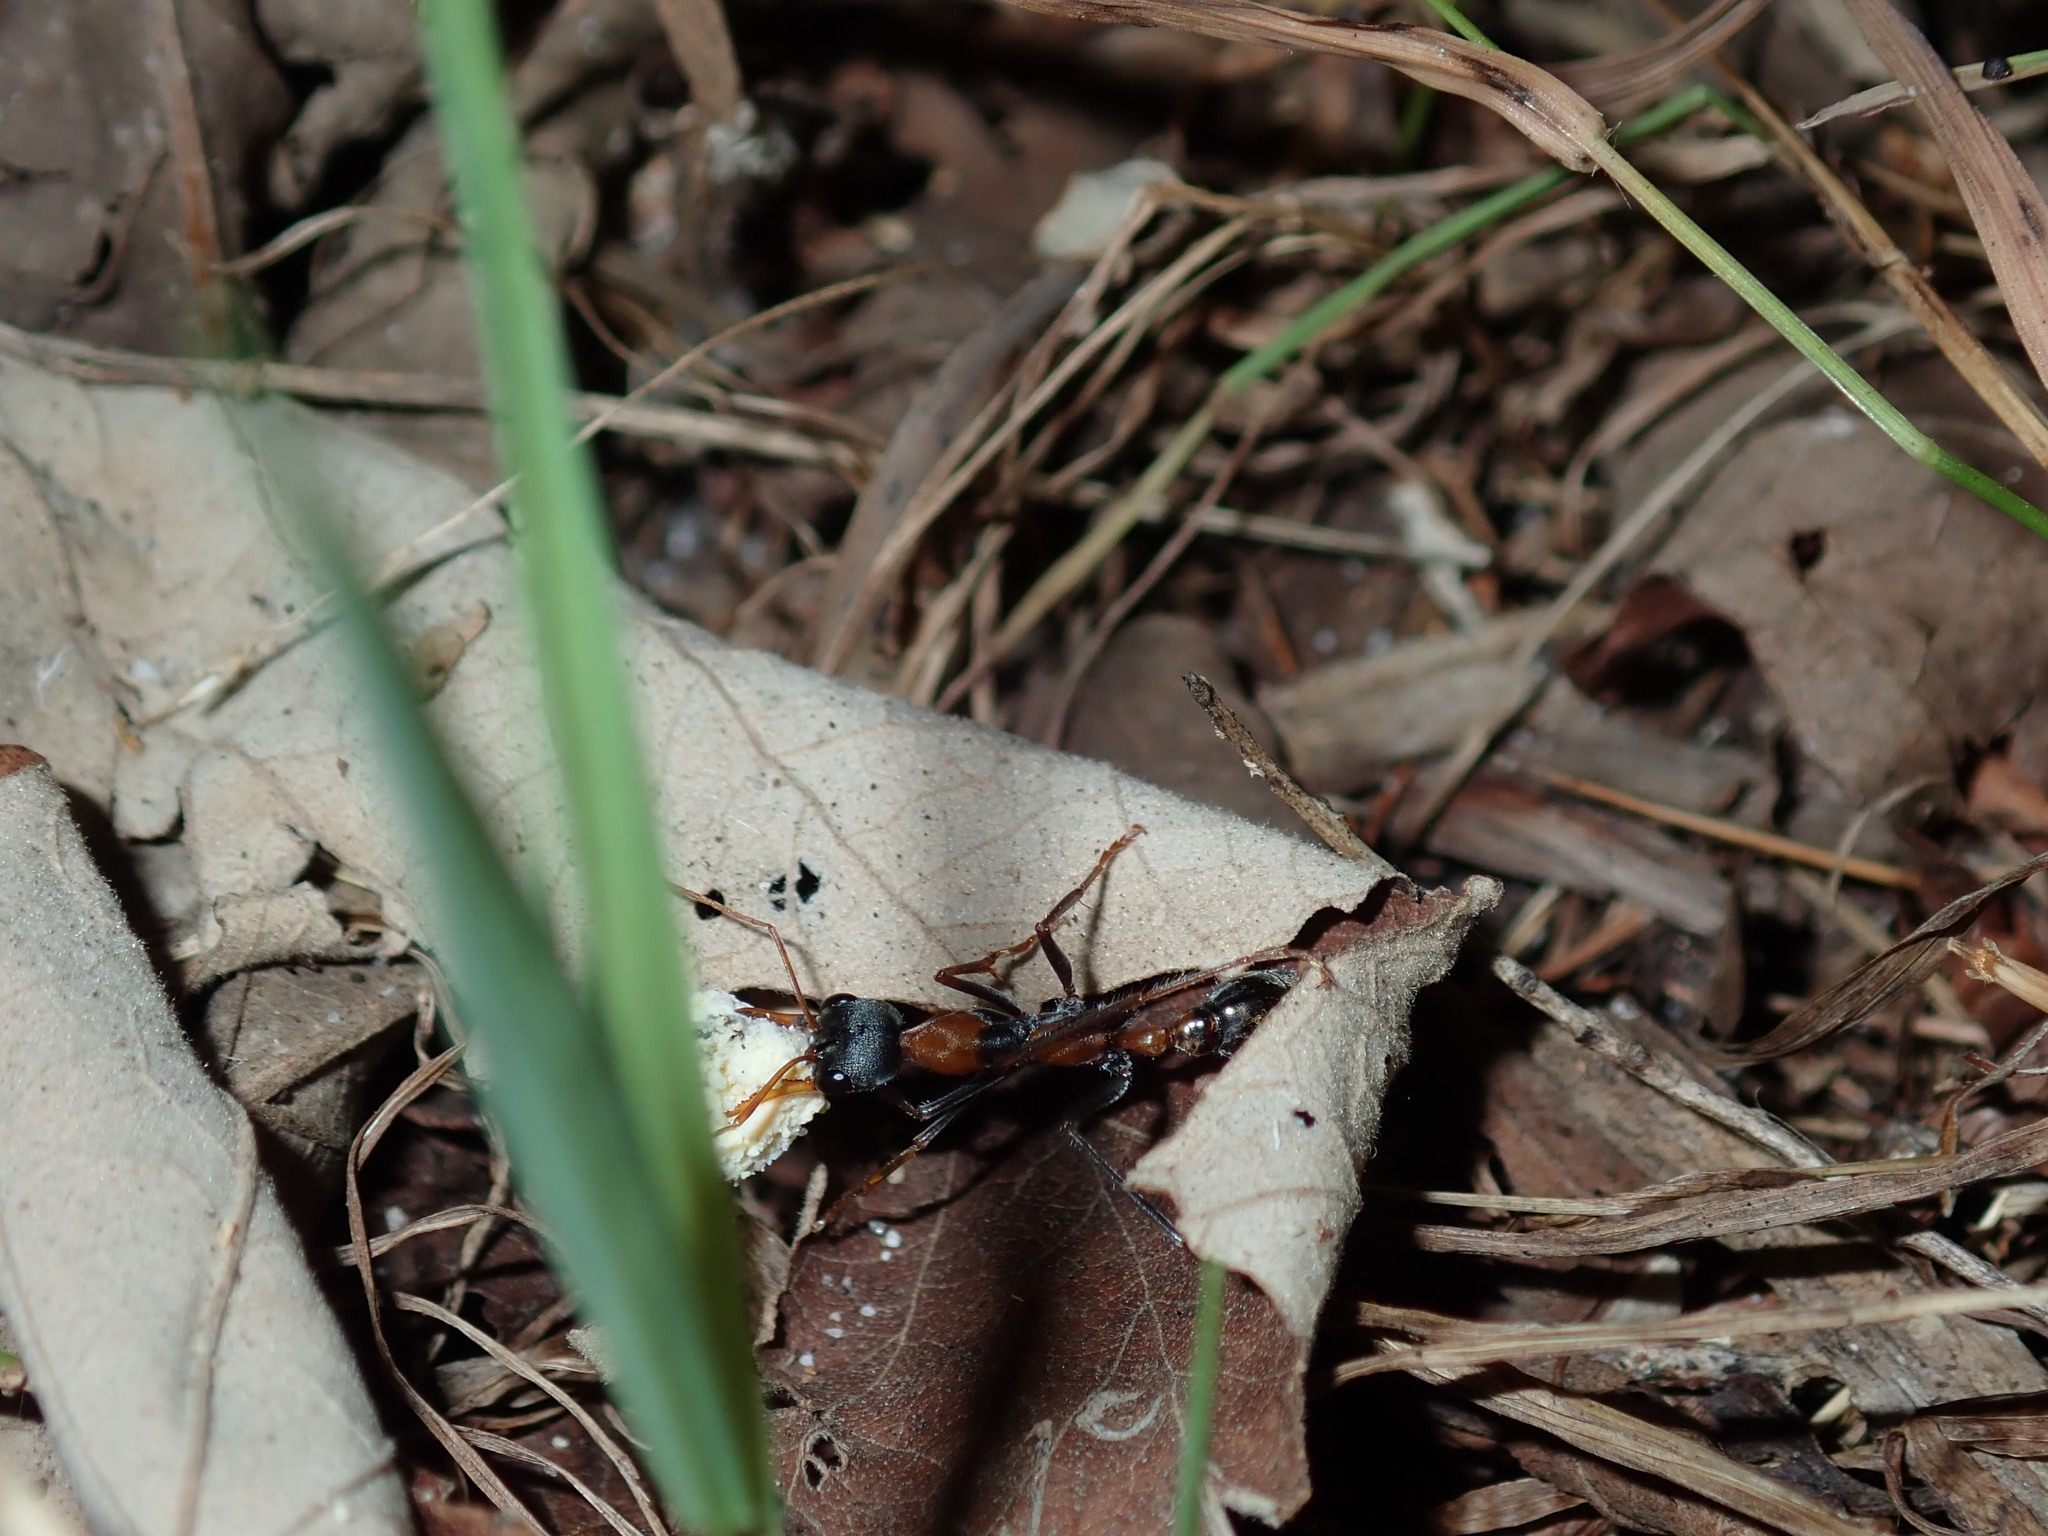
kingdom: Animalia
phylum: Arthropoda
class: Insecta
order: Hymenoptera
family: Formicidae
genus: Myrmecia
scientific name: Myrmecia nigrocincta
